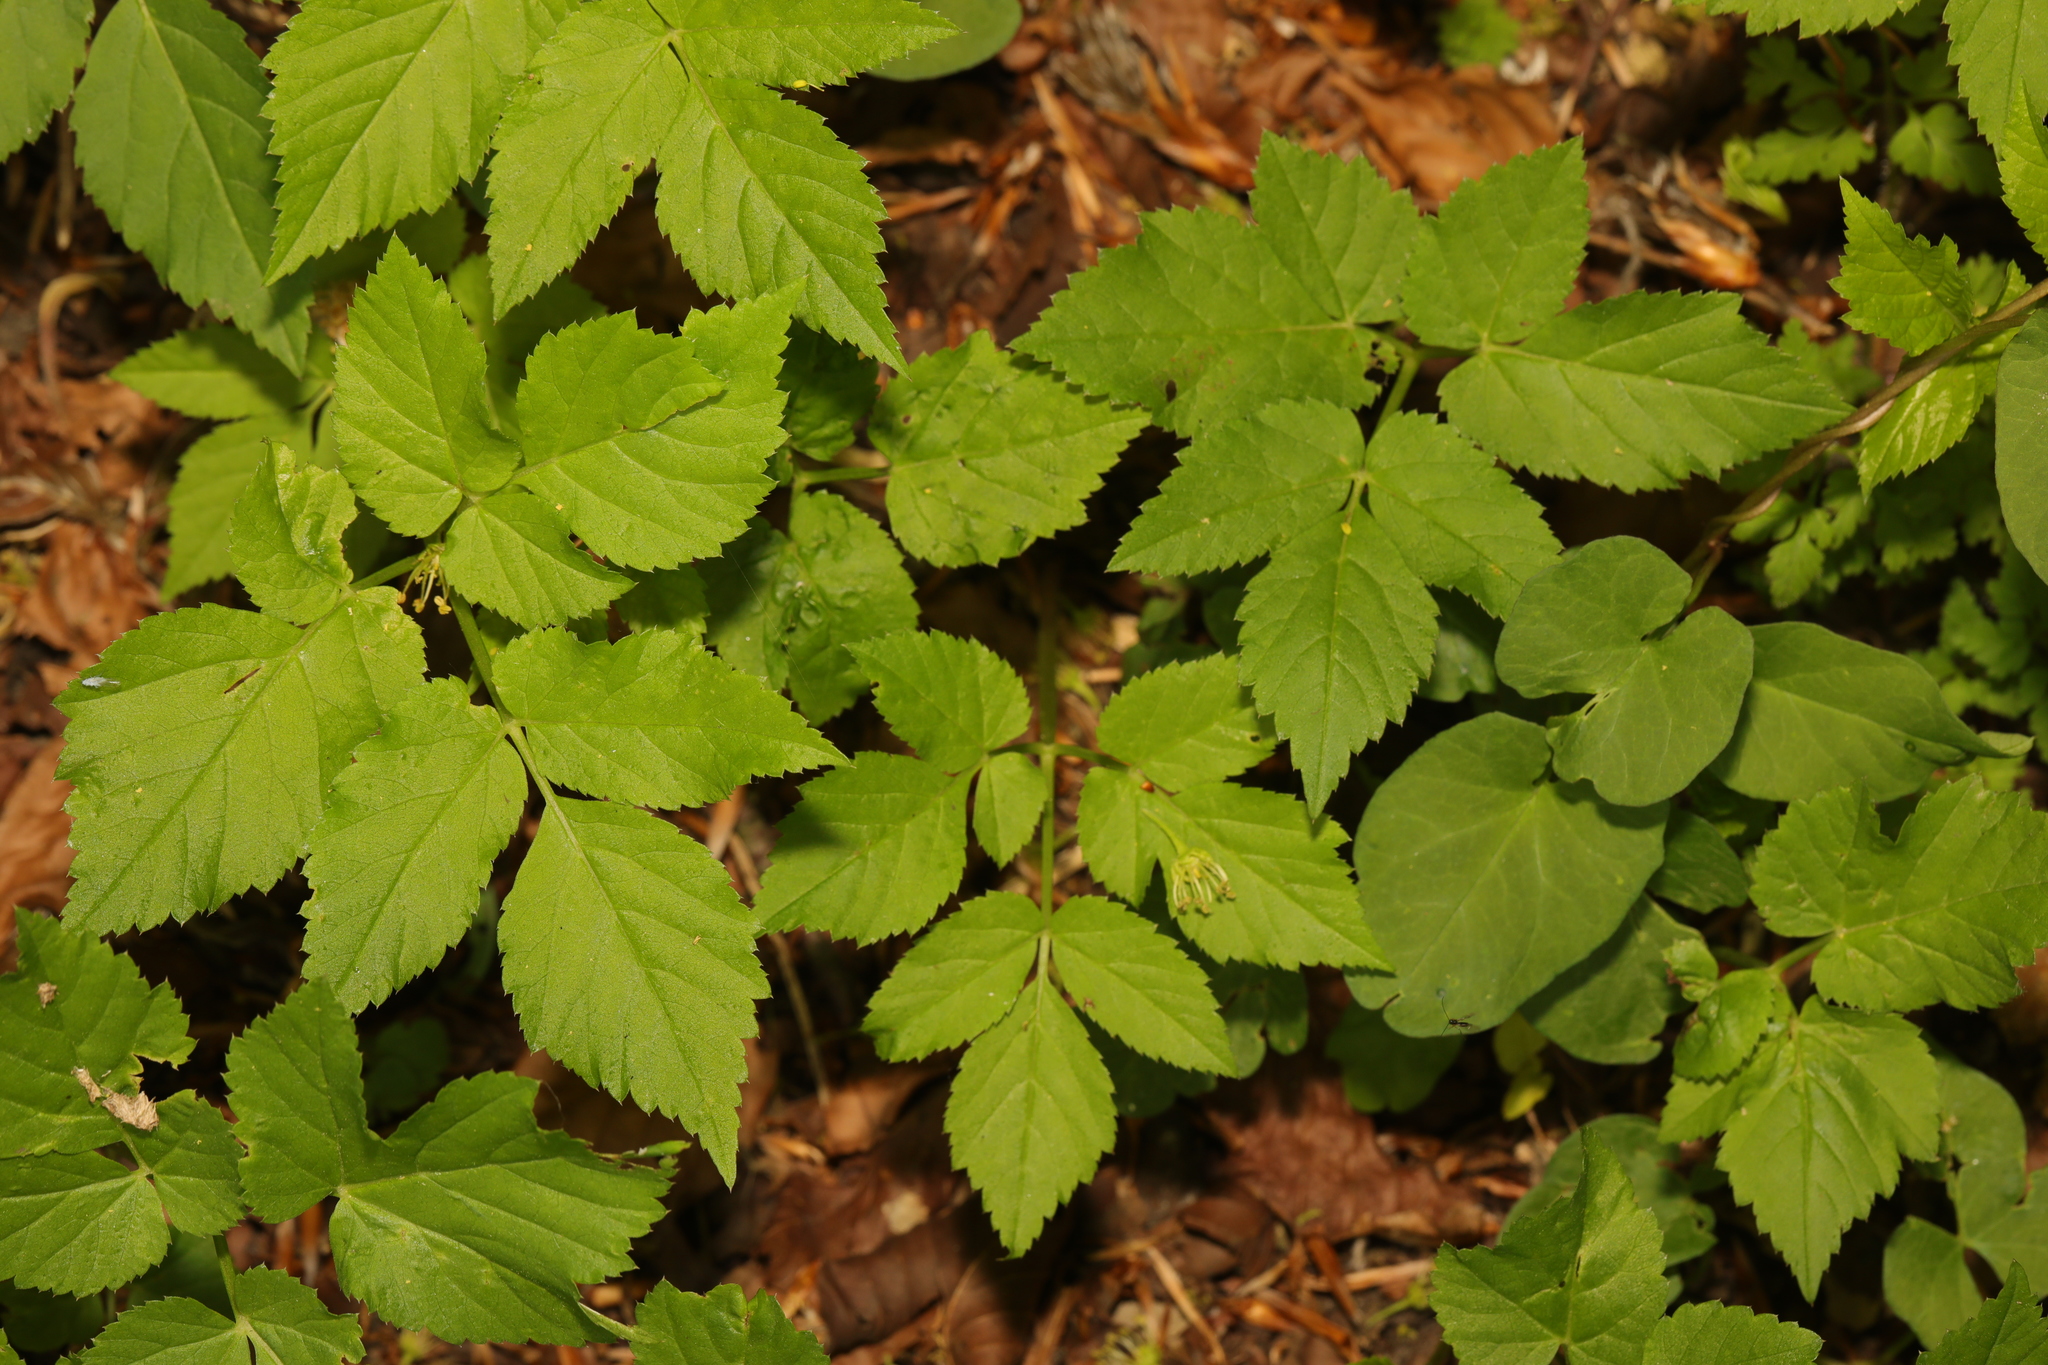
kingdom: Plantae
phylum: Tracheophyta
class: Magnoliopsida
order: Apiales
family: Apiaceae
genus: Aegopodium
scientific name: Aegopodium podagraria
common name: Ground-elder
